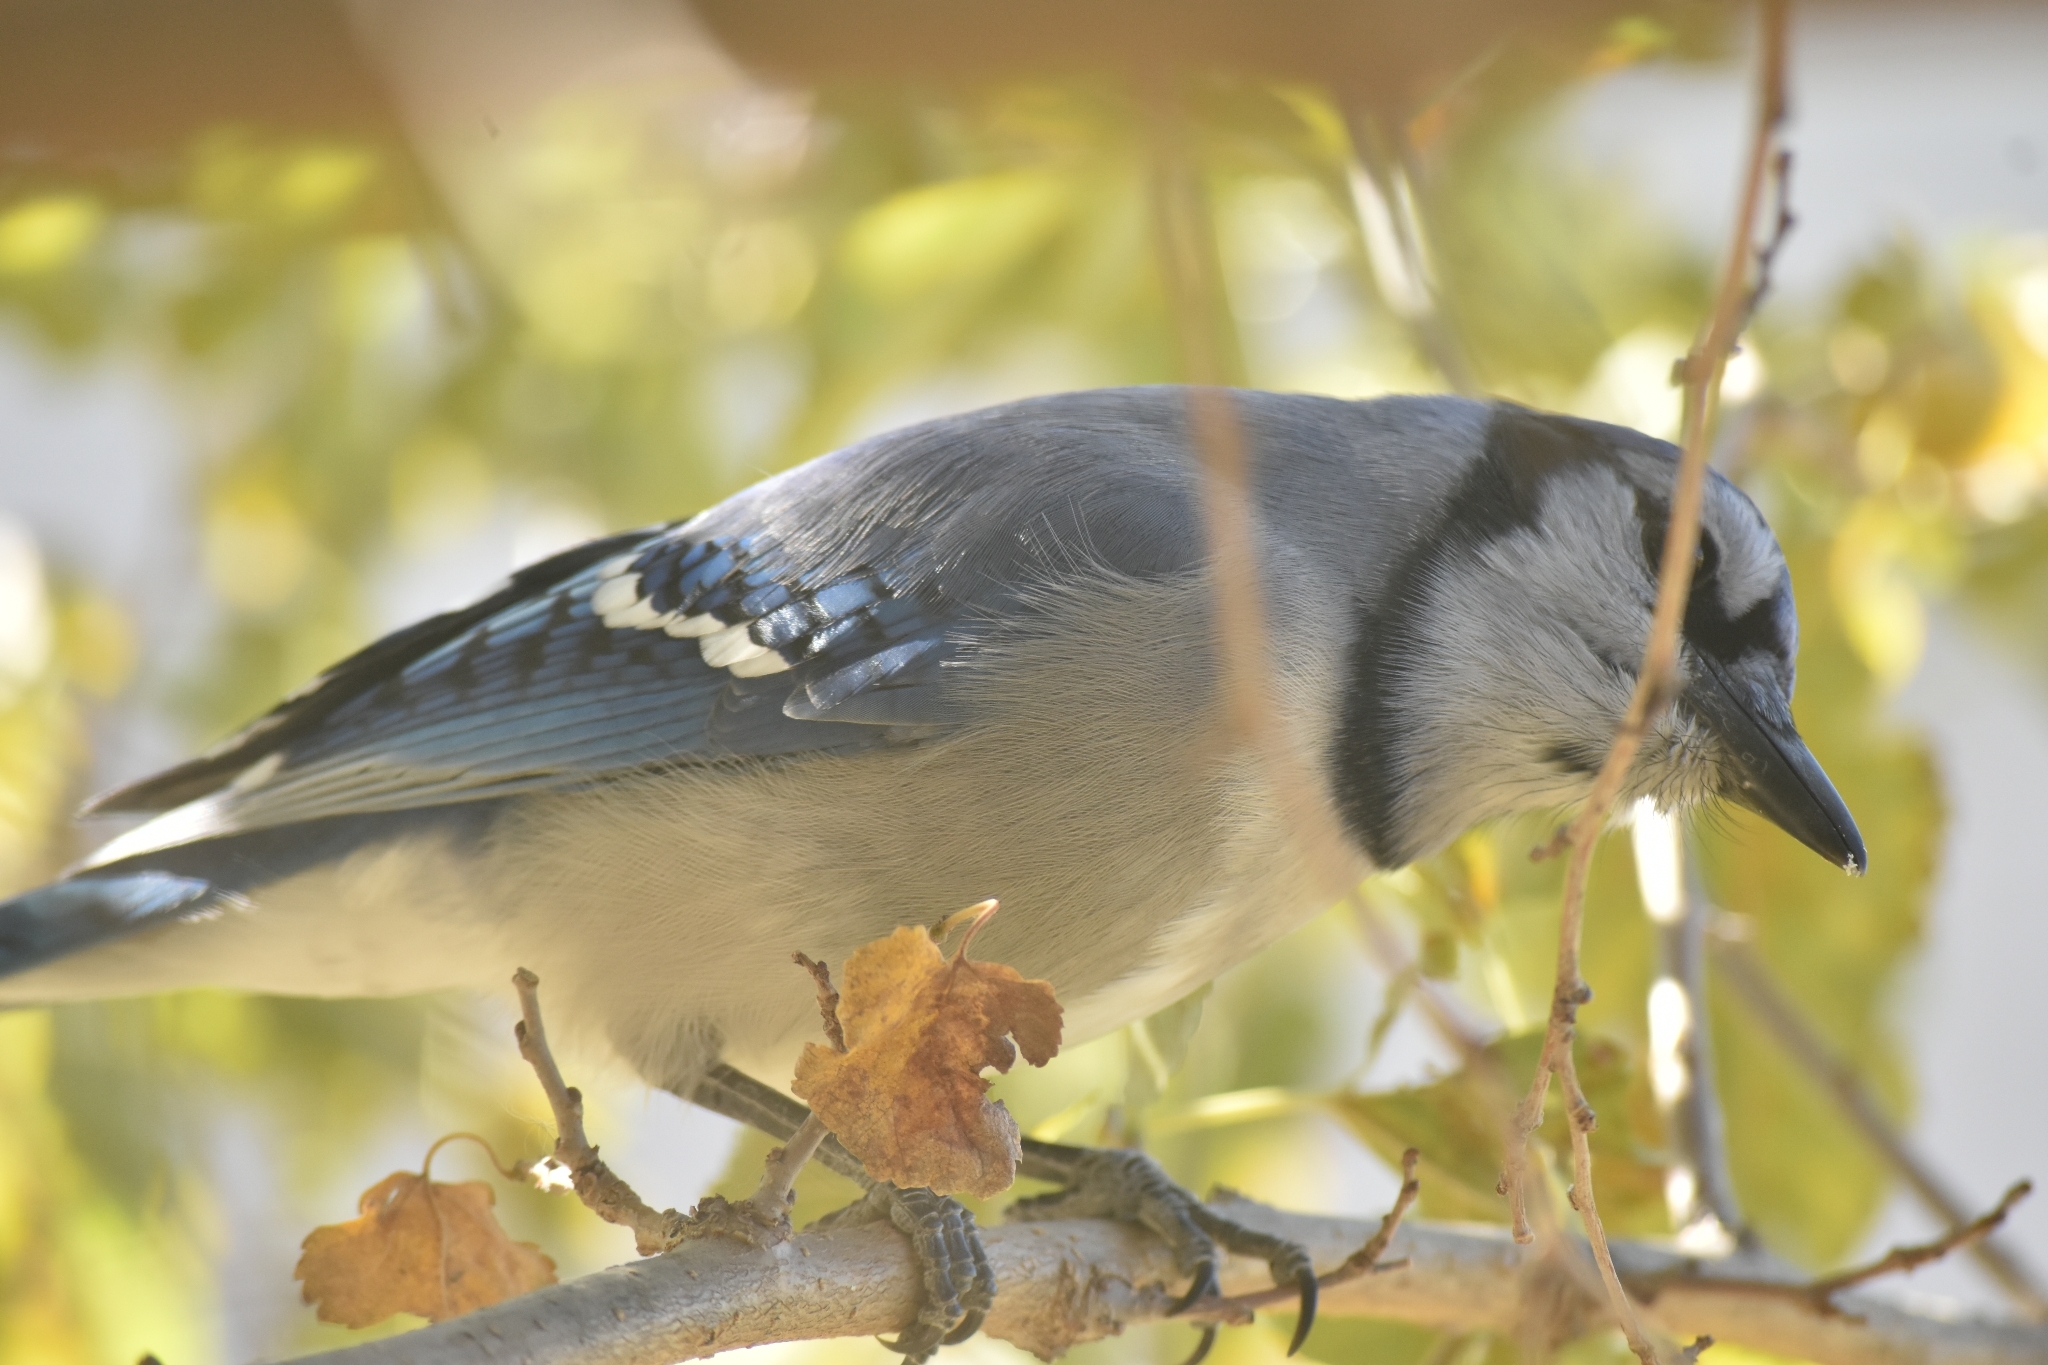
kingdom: Animalia
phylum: Chordata
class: Aves
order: Passeriformes
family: Corvidae
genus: Cyanocitta
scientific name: Cyanocitta cristata
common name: Blue jay
